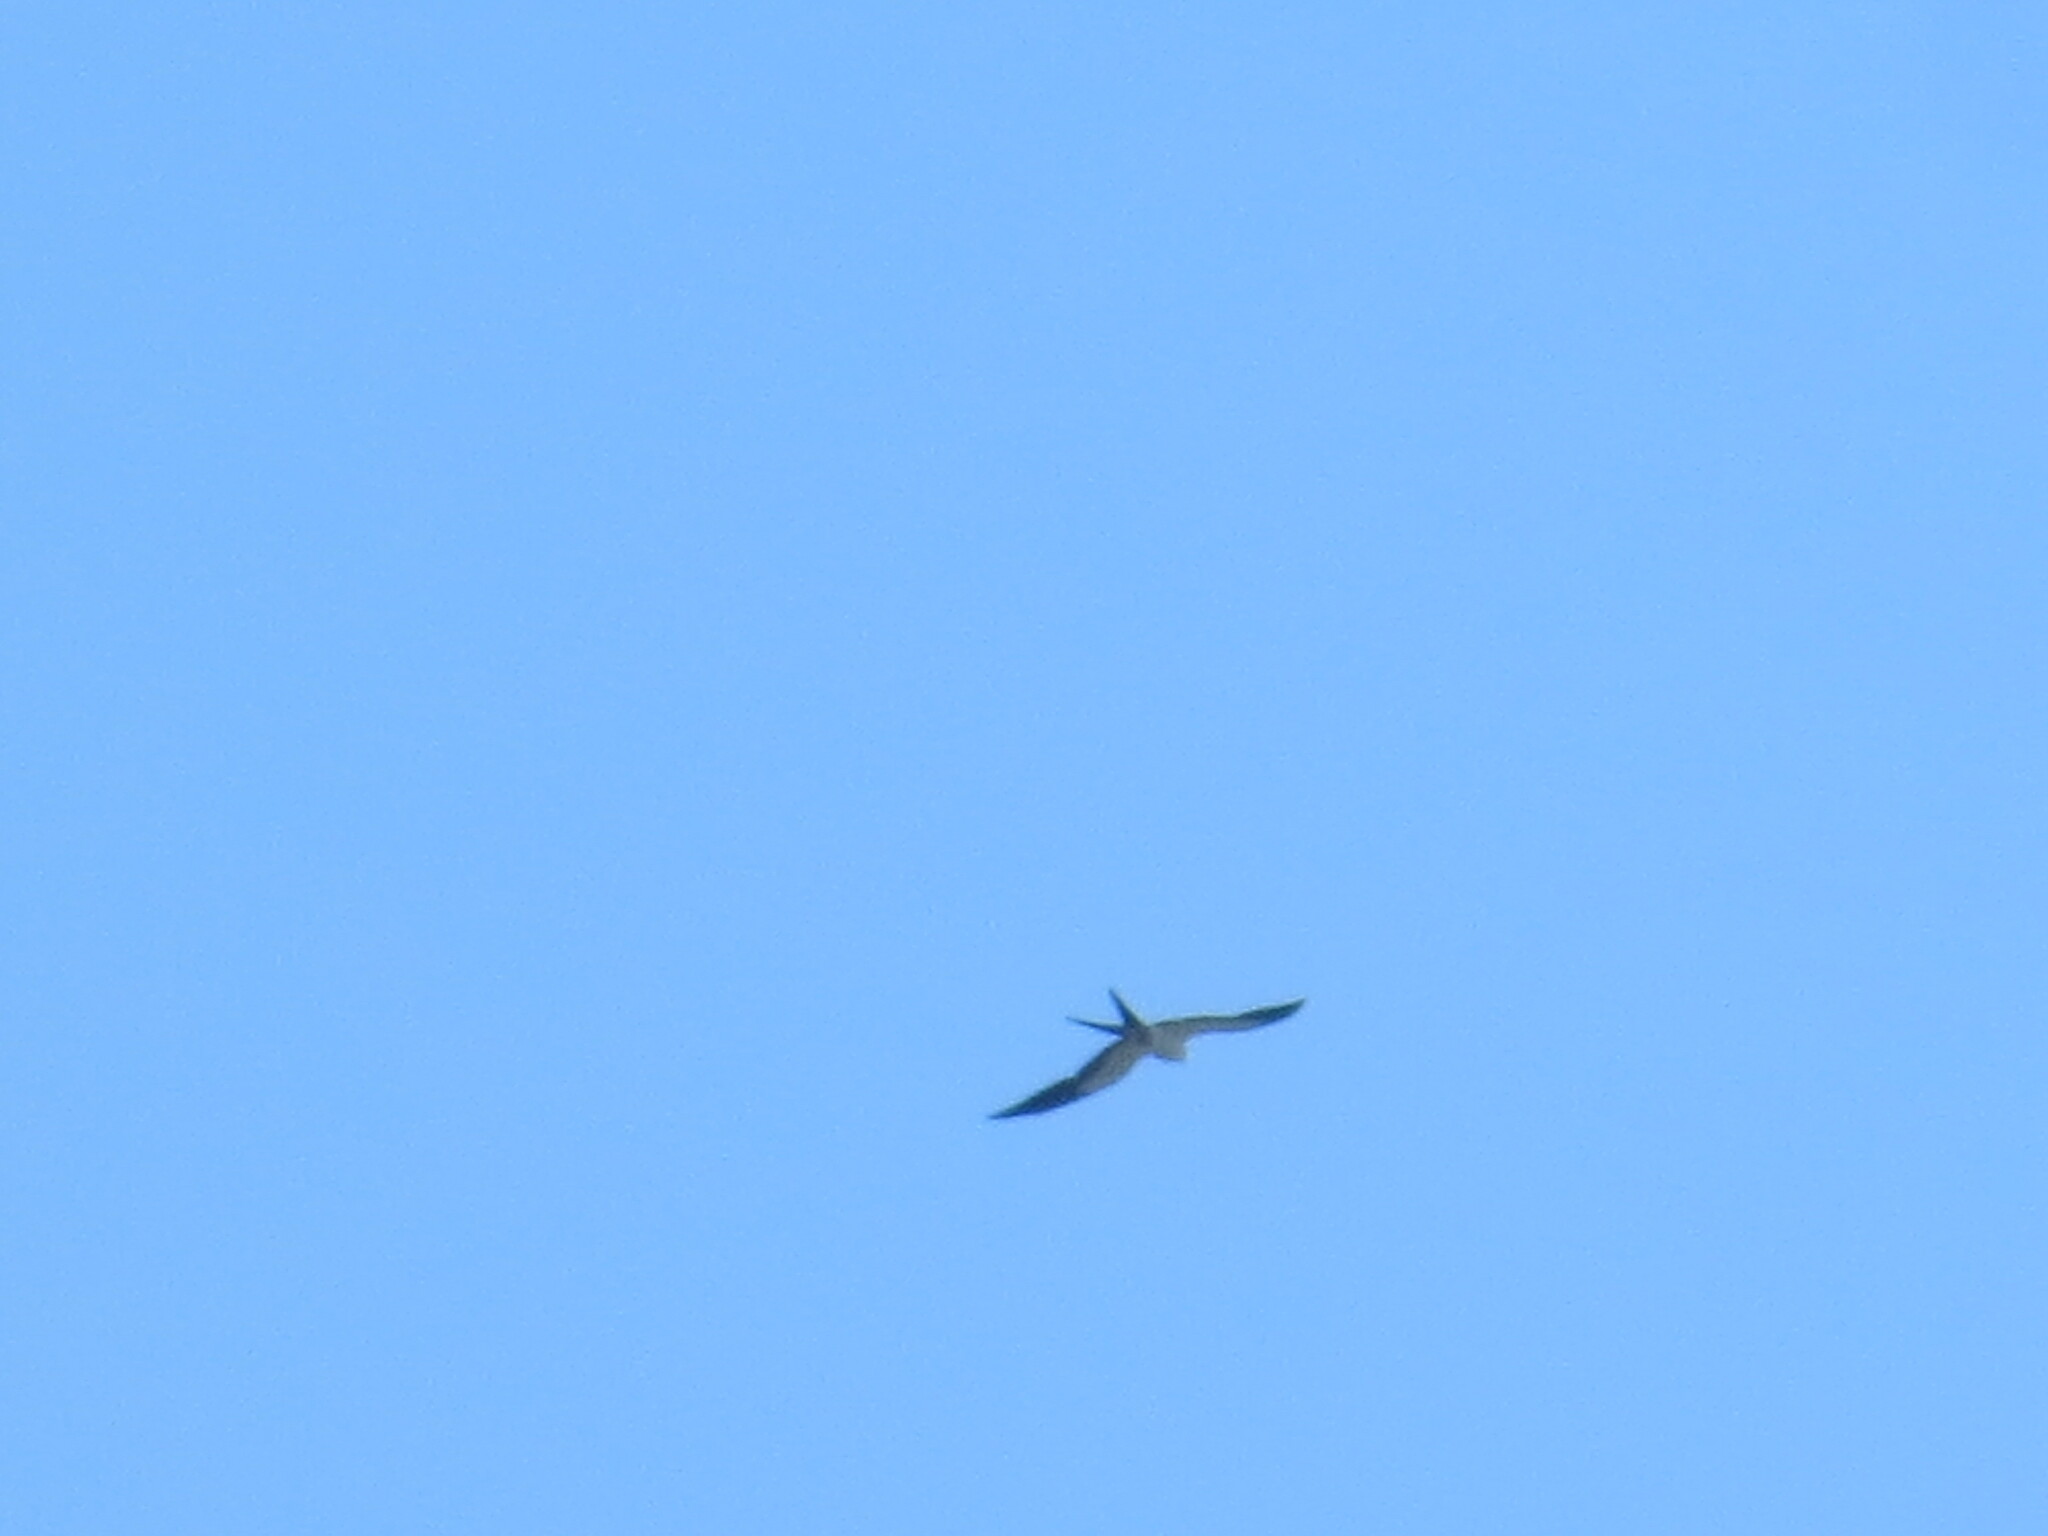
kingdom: Animalia
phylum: Chordata
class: Aves
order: Accipitriformes
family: Accipitridae
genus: Elanoides
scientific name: Elanoides forficatus
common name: Swallow-tailed kite
